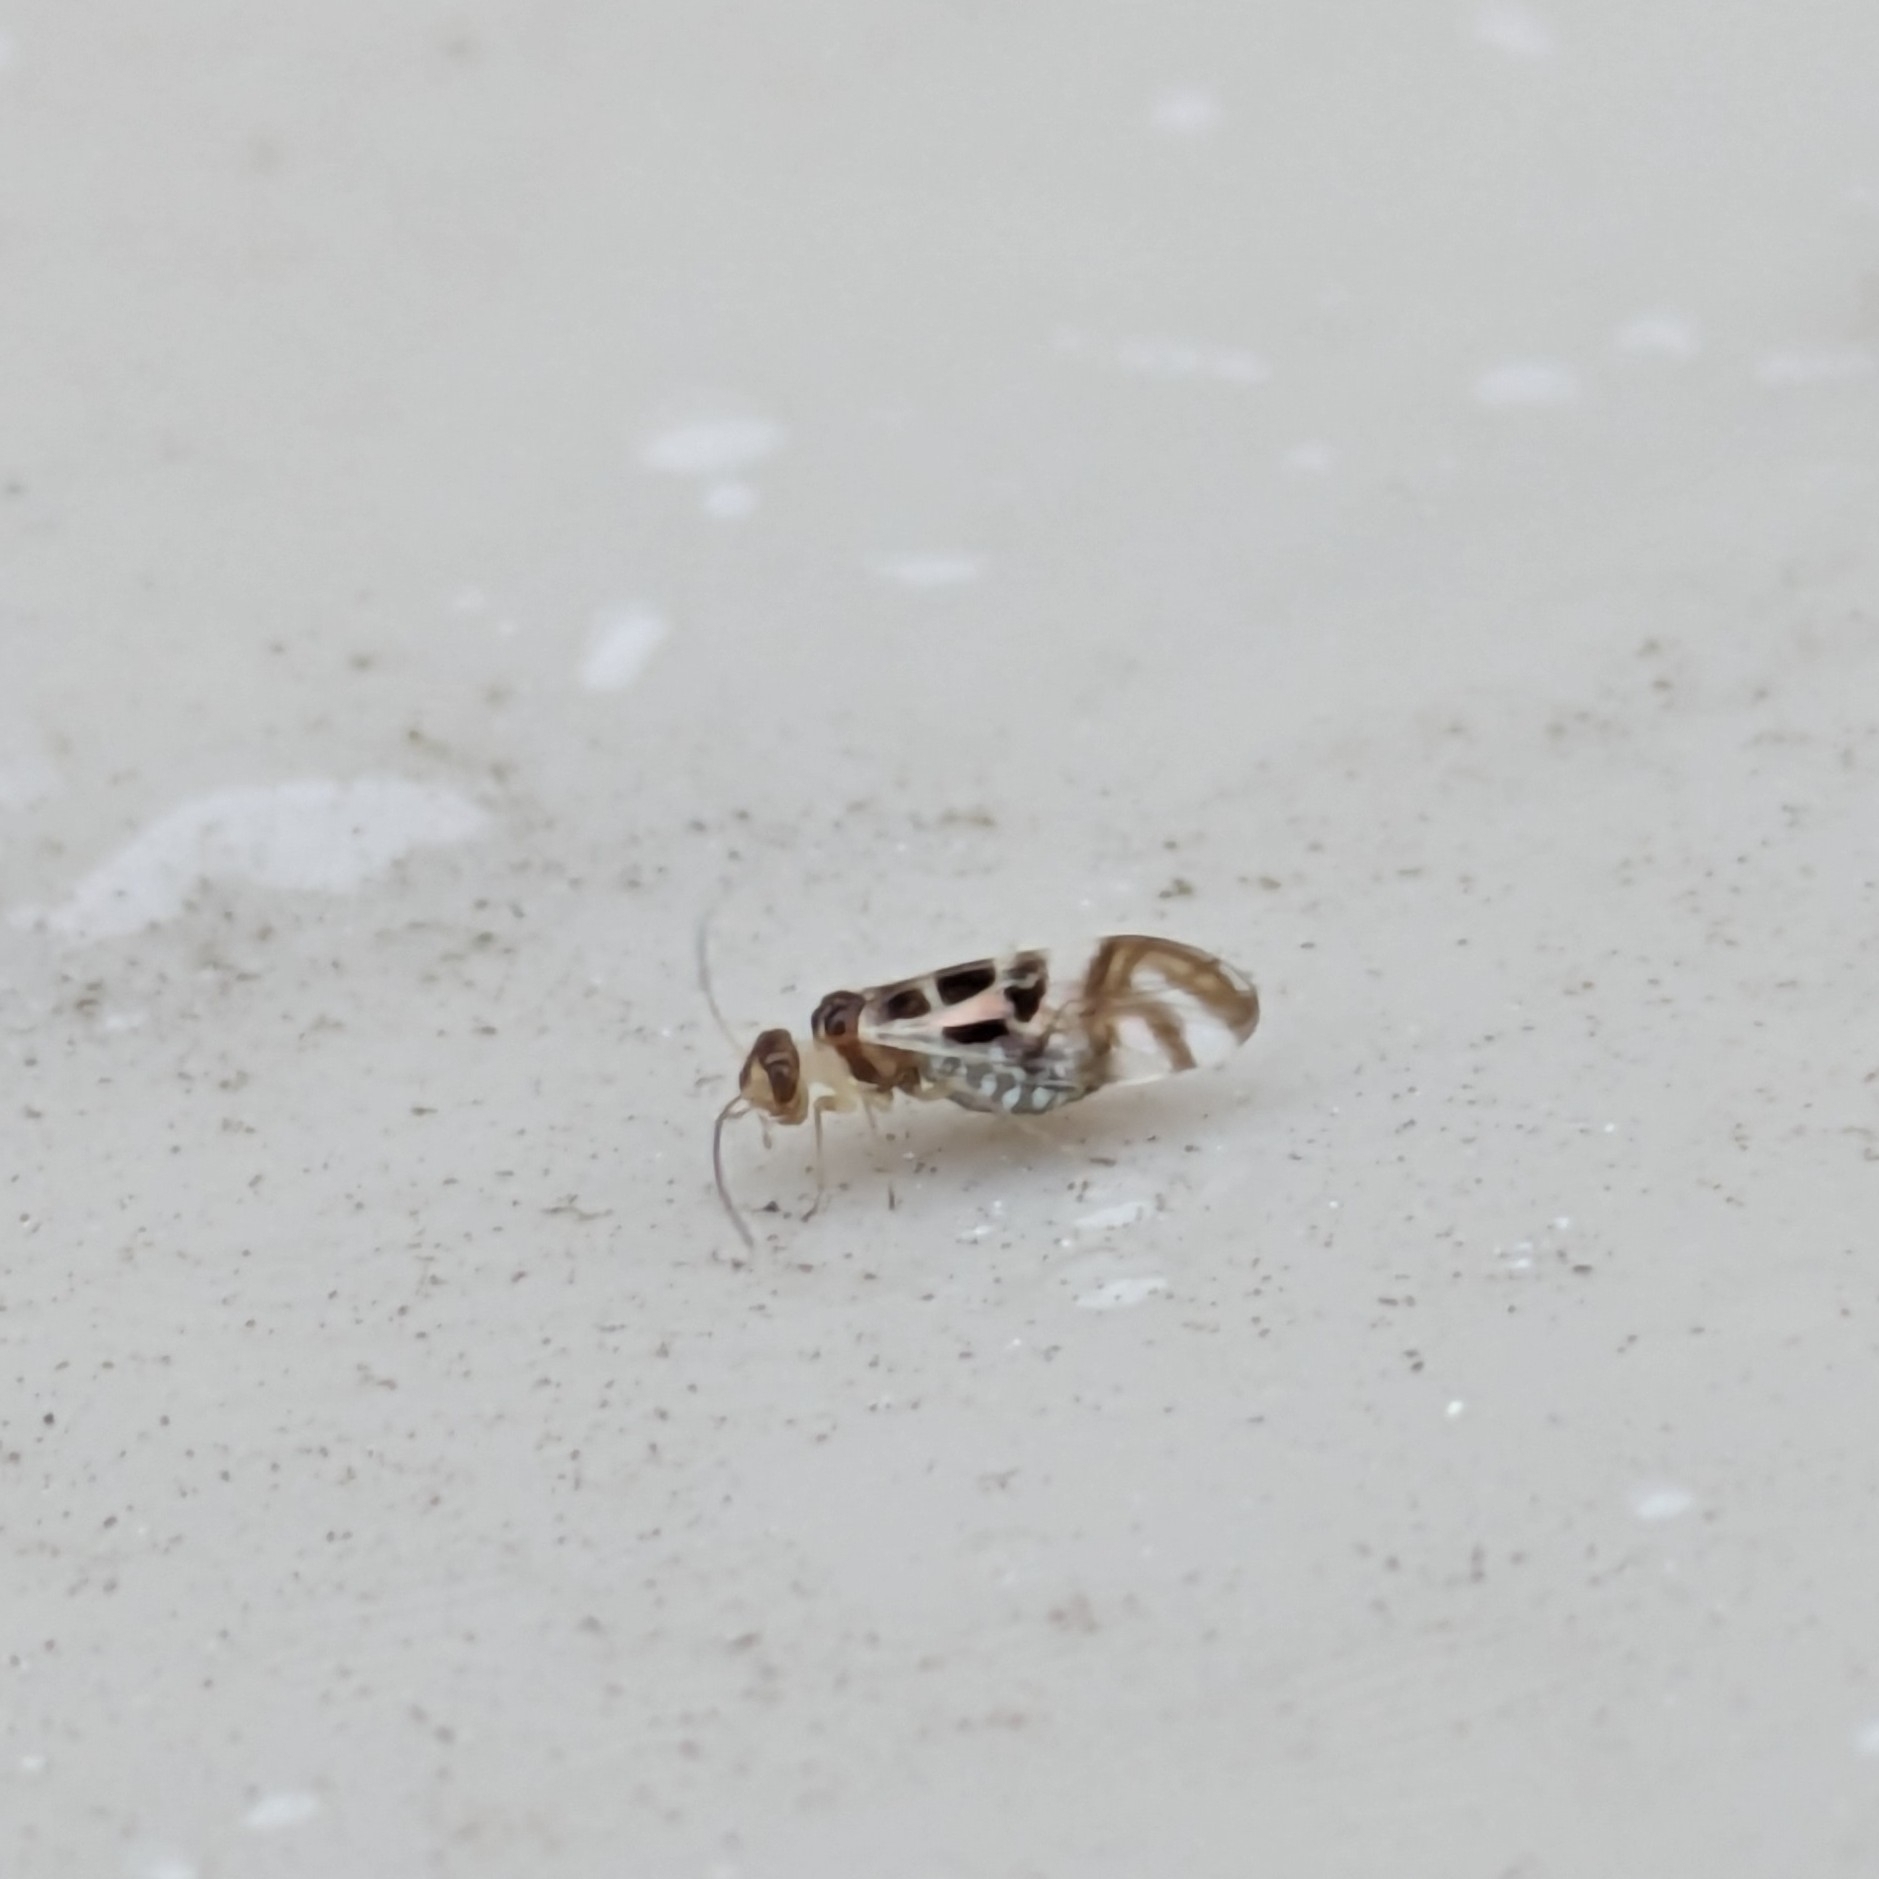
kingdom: Animalia
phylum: Arthropoda
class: Insecta
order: Psocodea
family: Stenopsocidae
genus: Graphopsocus
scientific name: Graphopsocus cruciatus
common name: Lizard bark louse
